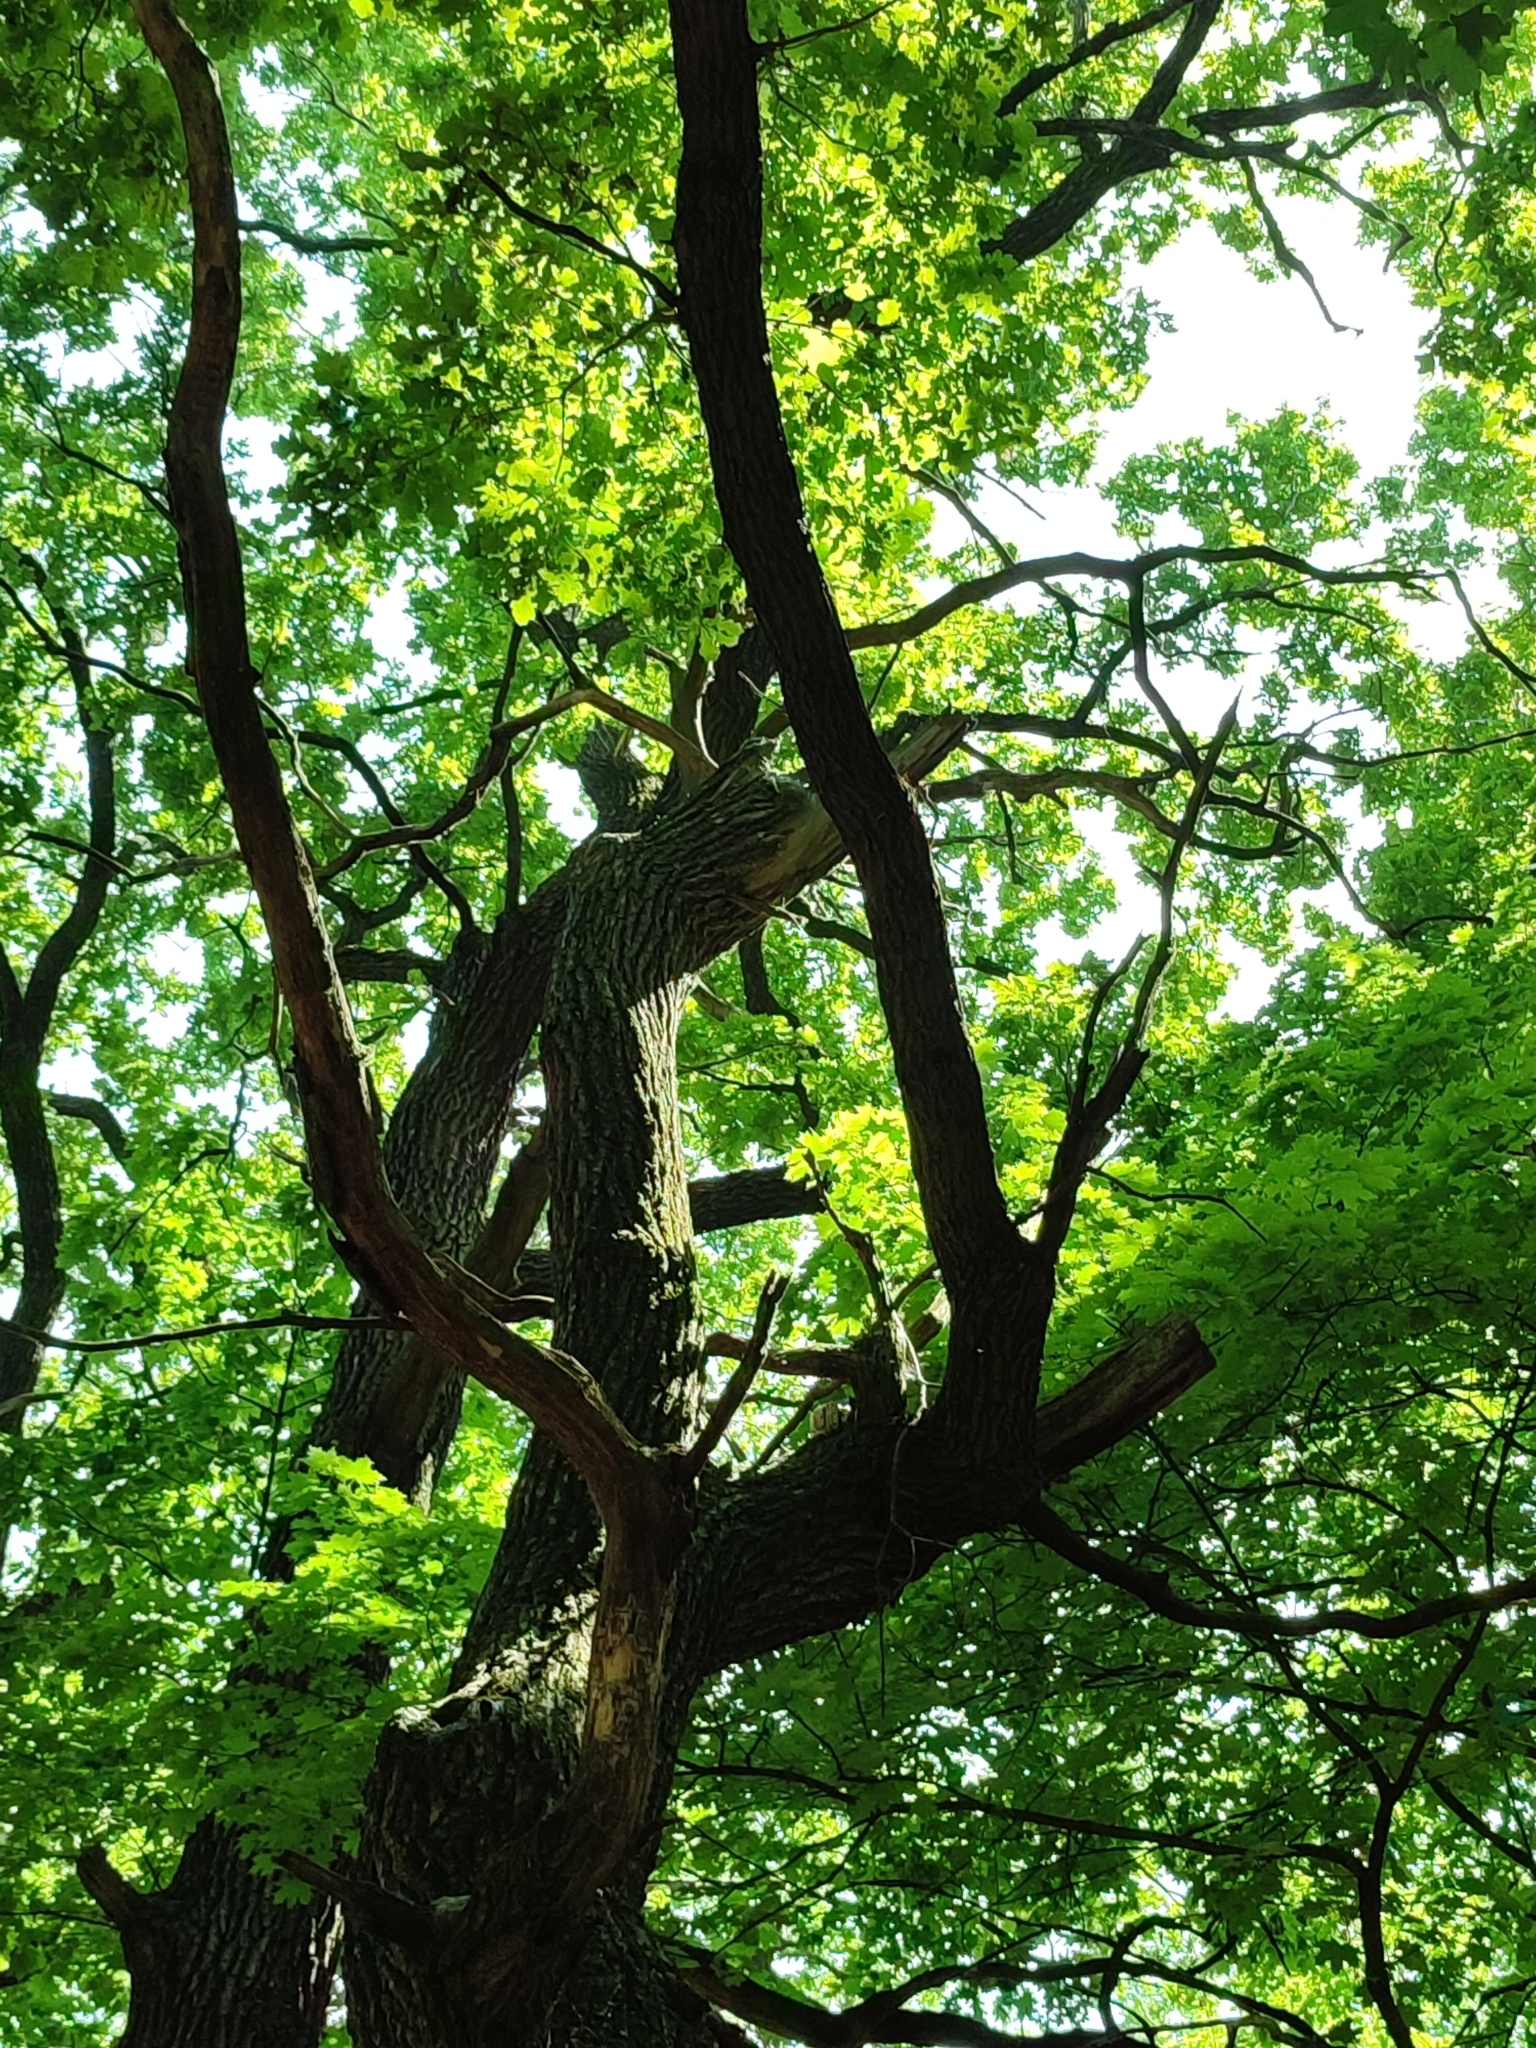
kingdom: Plantae
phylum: Tracheophyta
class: Magnoliopsida
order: Fagales
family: Fagaceae
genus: Quercus
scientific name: Quercus robur
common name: Pedunculate oak
